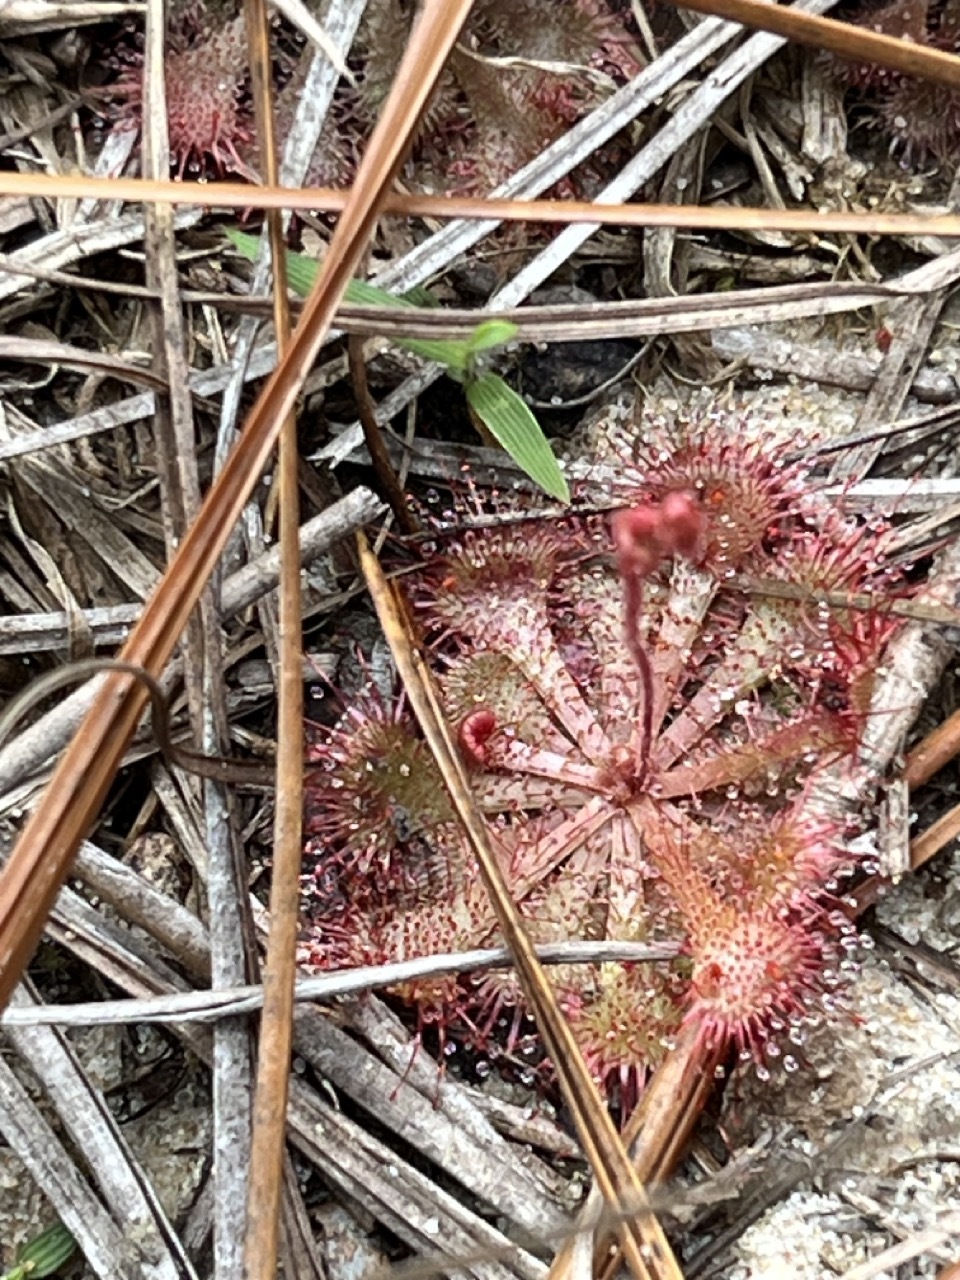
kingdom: Plantae
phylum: Tracheophyta
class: Magnoliopsida
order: Caryophyllales
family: Droseraceae
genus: Drosera
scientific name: Drosera brevifolia
